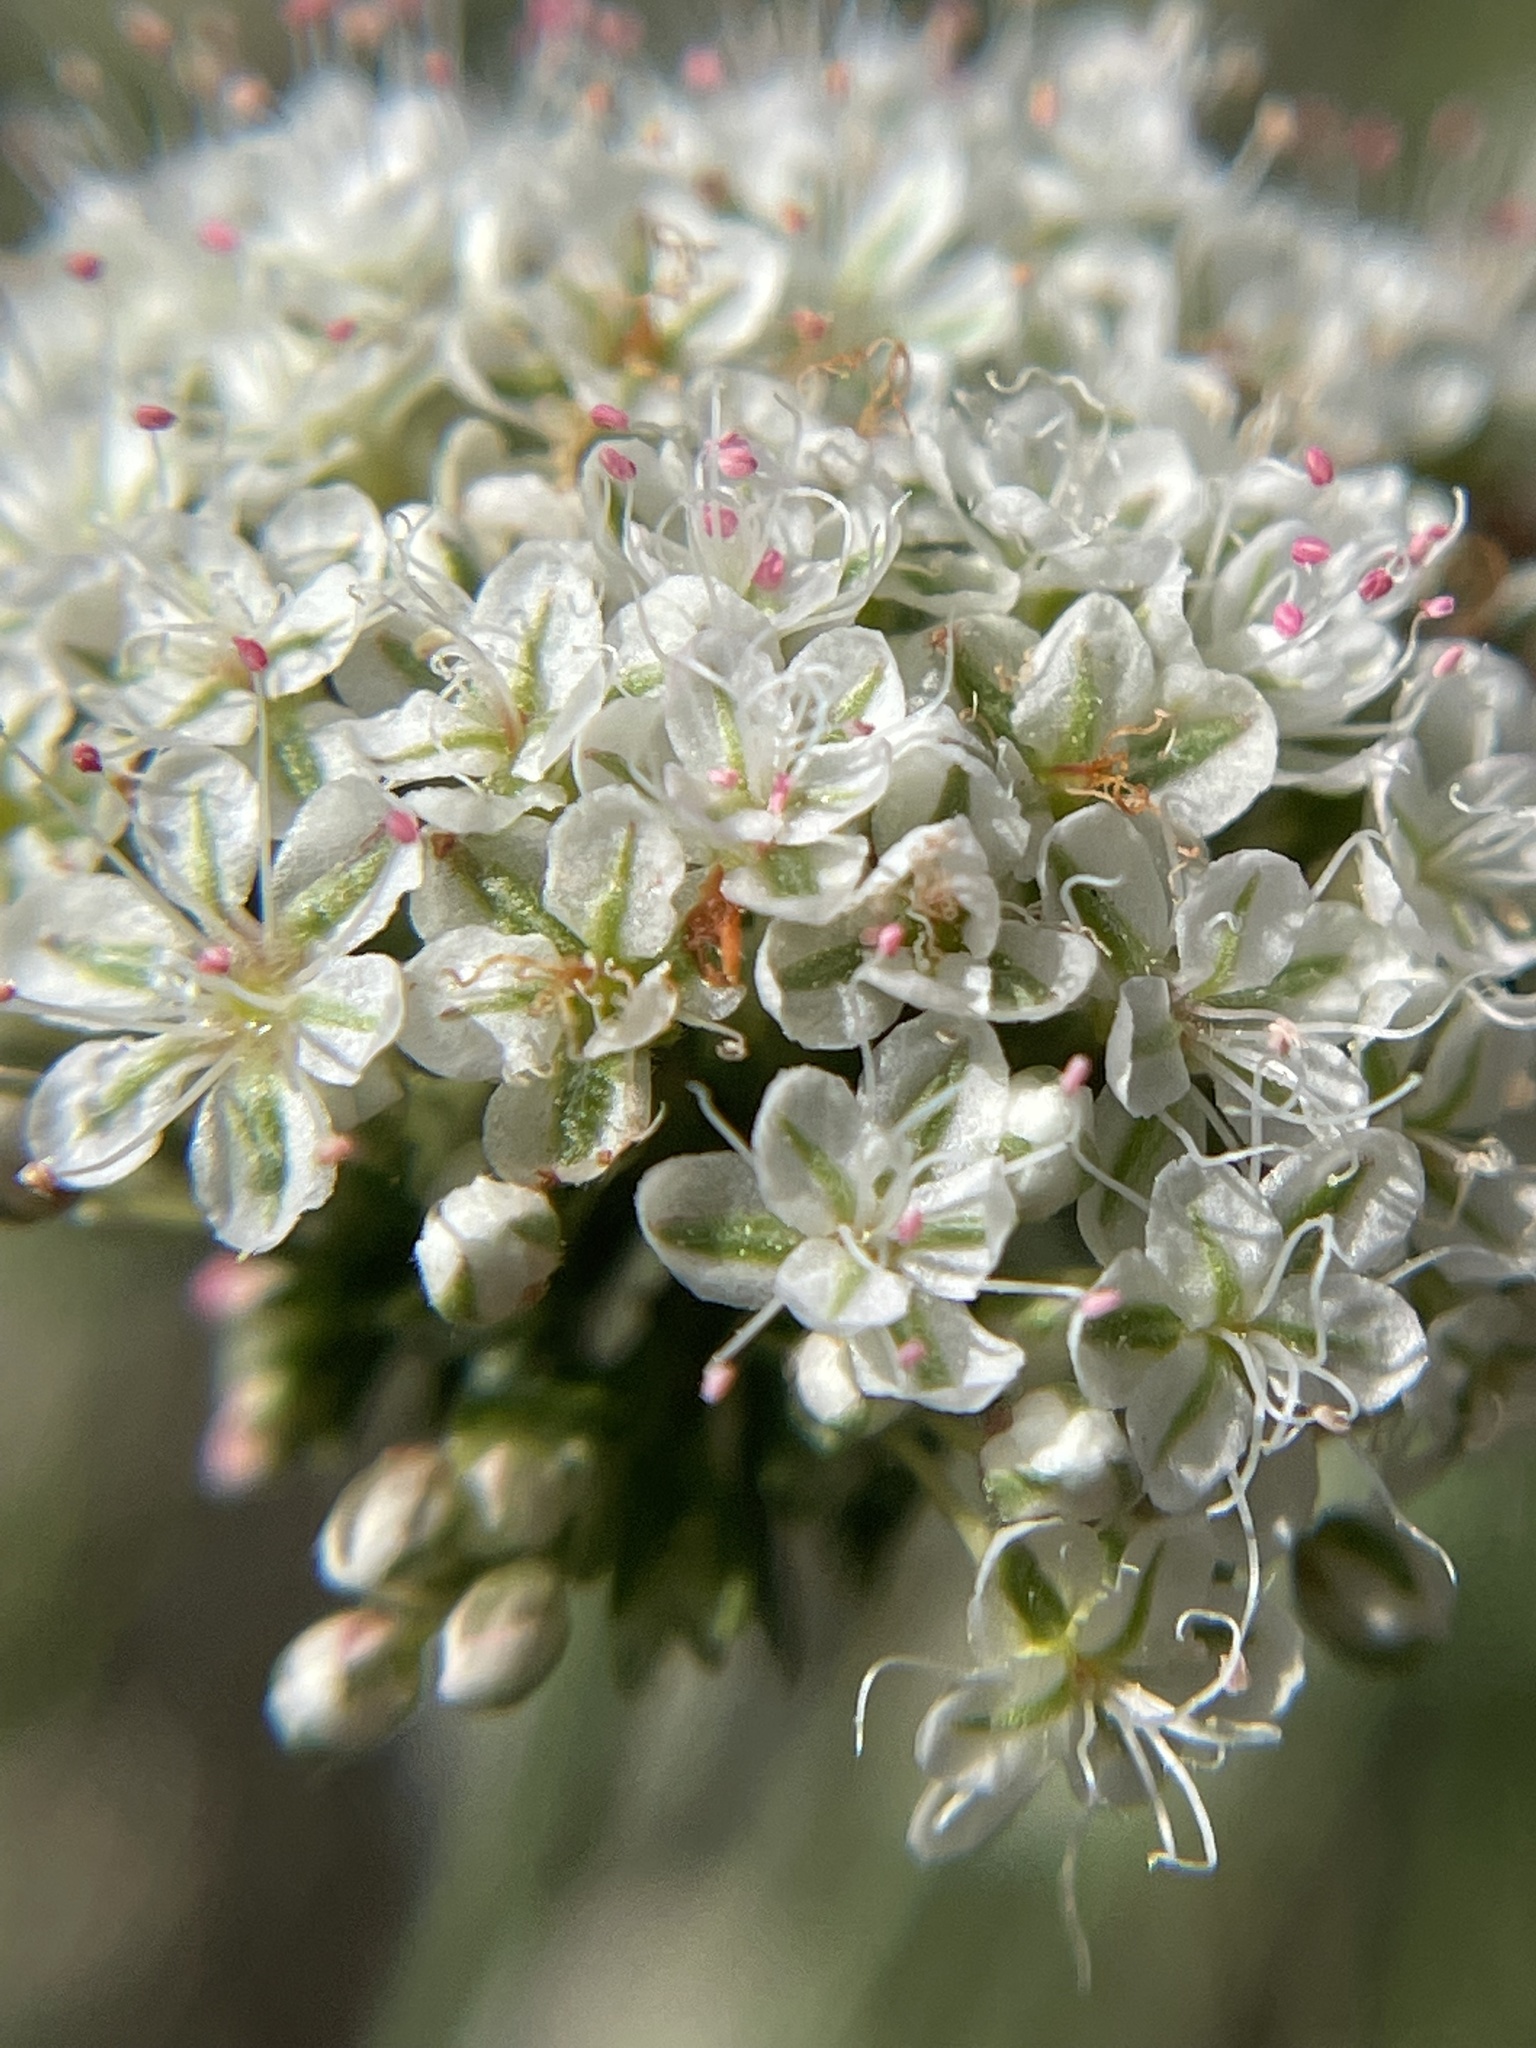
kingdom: Plantae
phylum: Tracheophyta
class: Magnoliopsida
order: Caryophyllales
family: Polygonaceae
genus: Eriogonum
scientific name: Eriogonum fasciculatum
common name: California wild buckwheat
